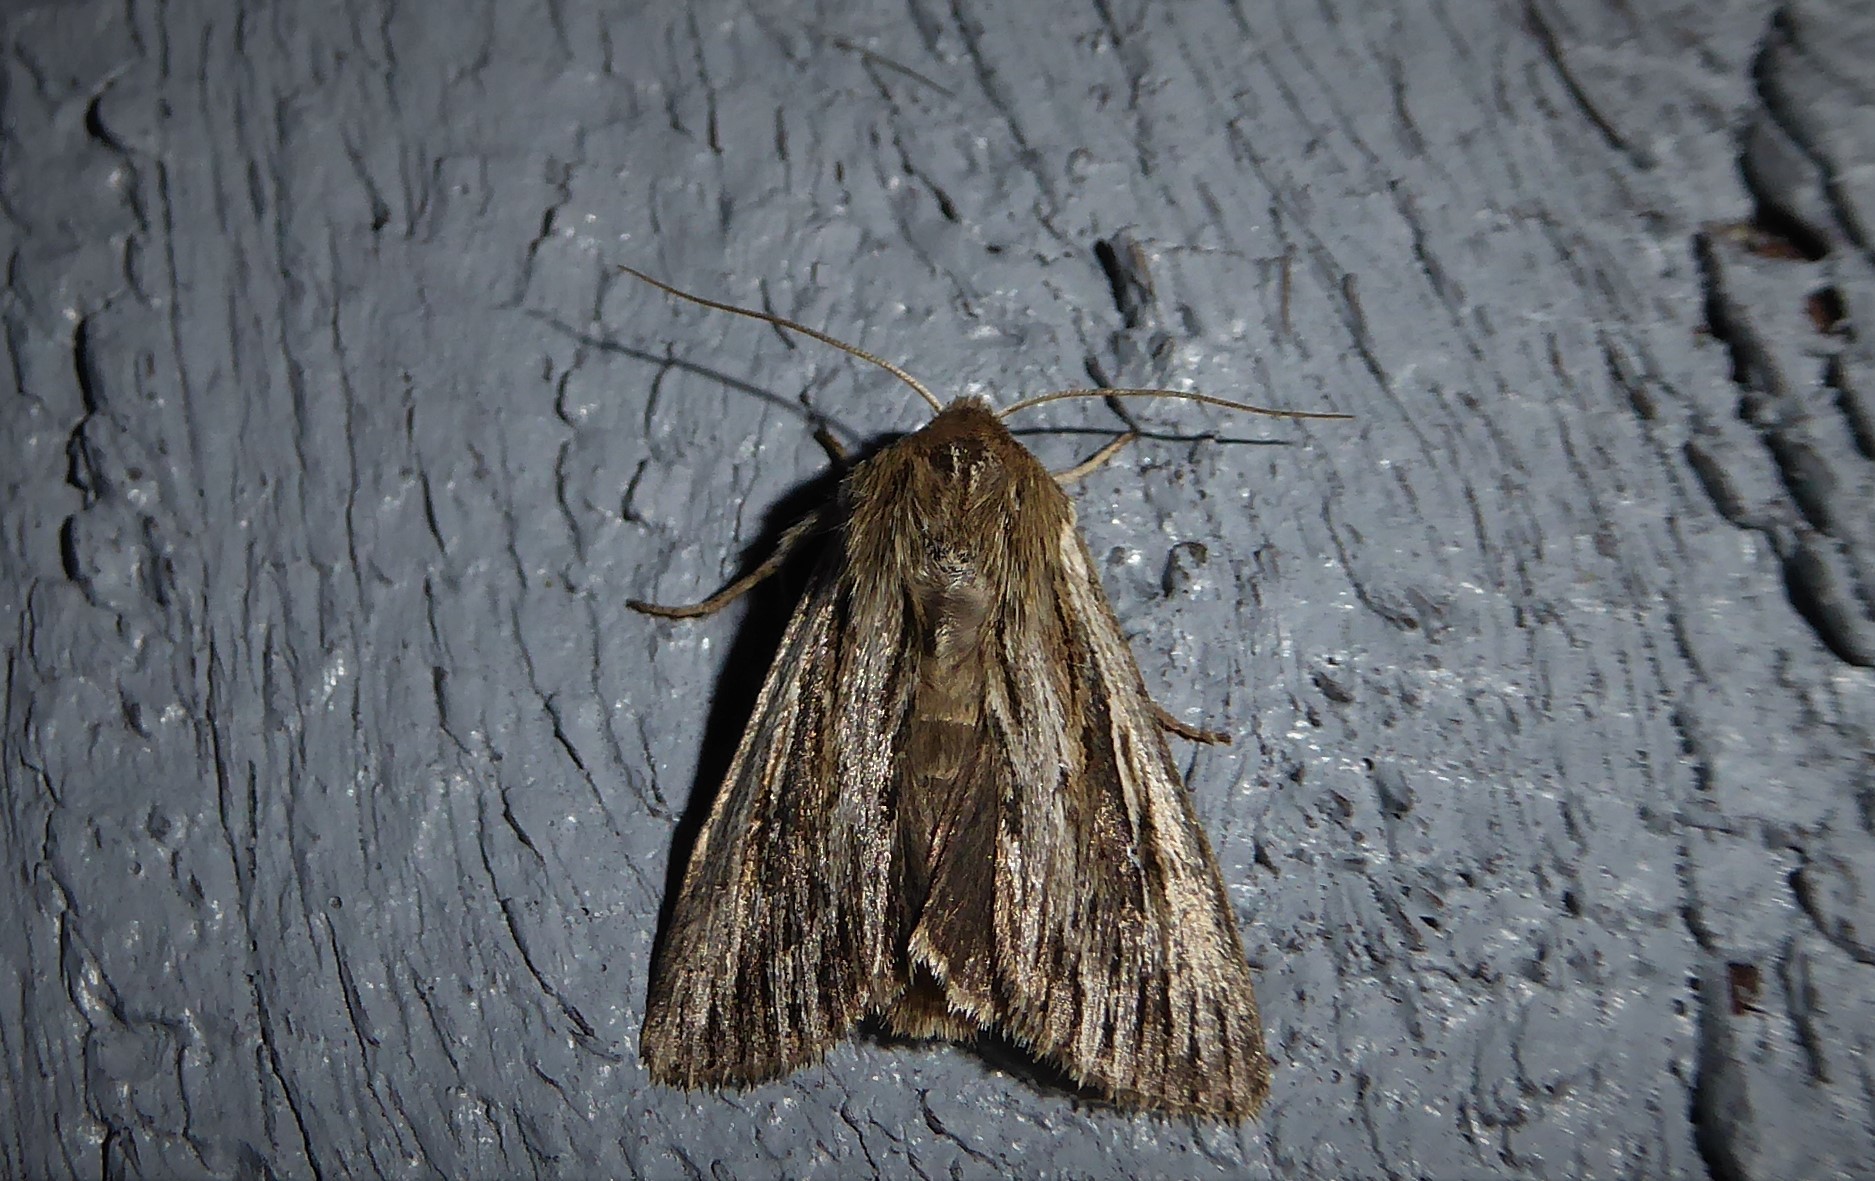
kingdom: Animalia
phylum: Arthropoda
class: Insecta
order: Lepidoptera
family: Noctuidae
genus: Persectania
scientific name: Persectania aversa
